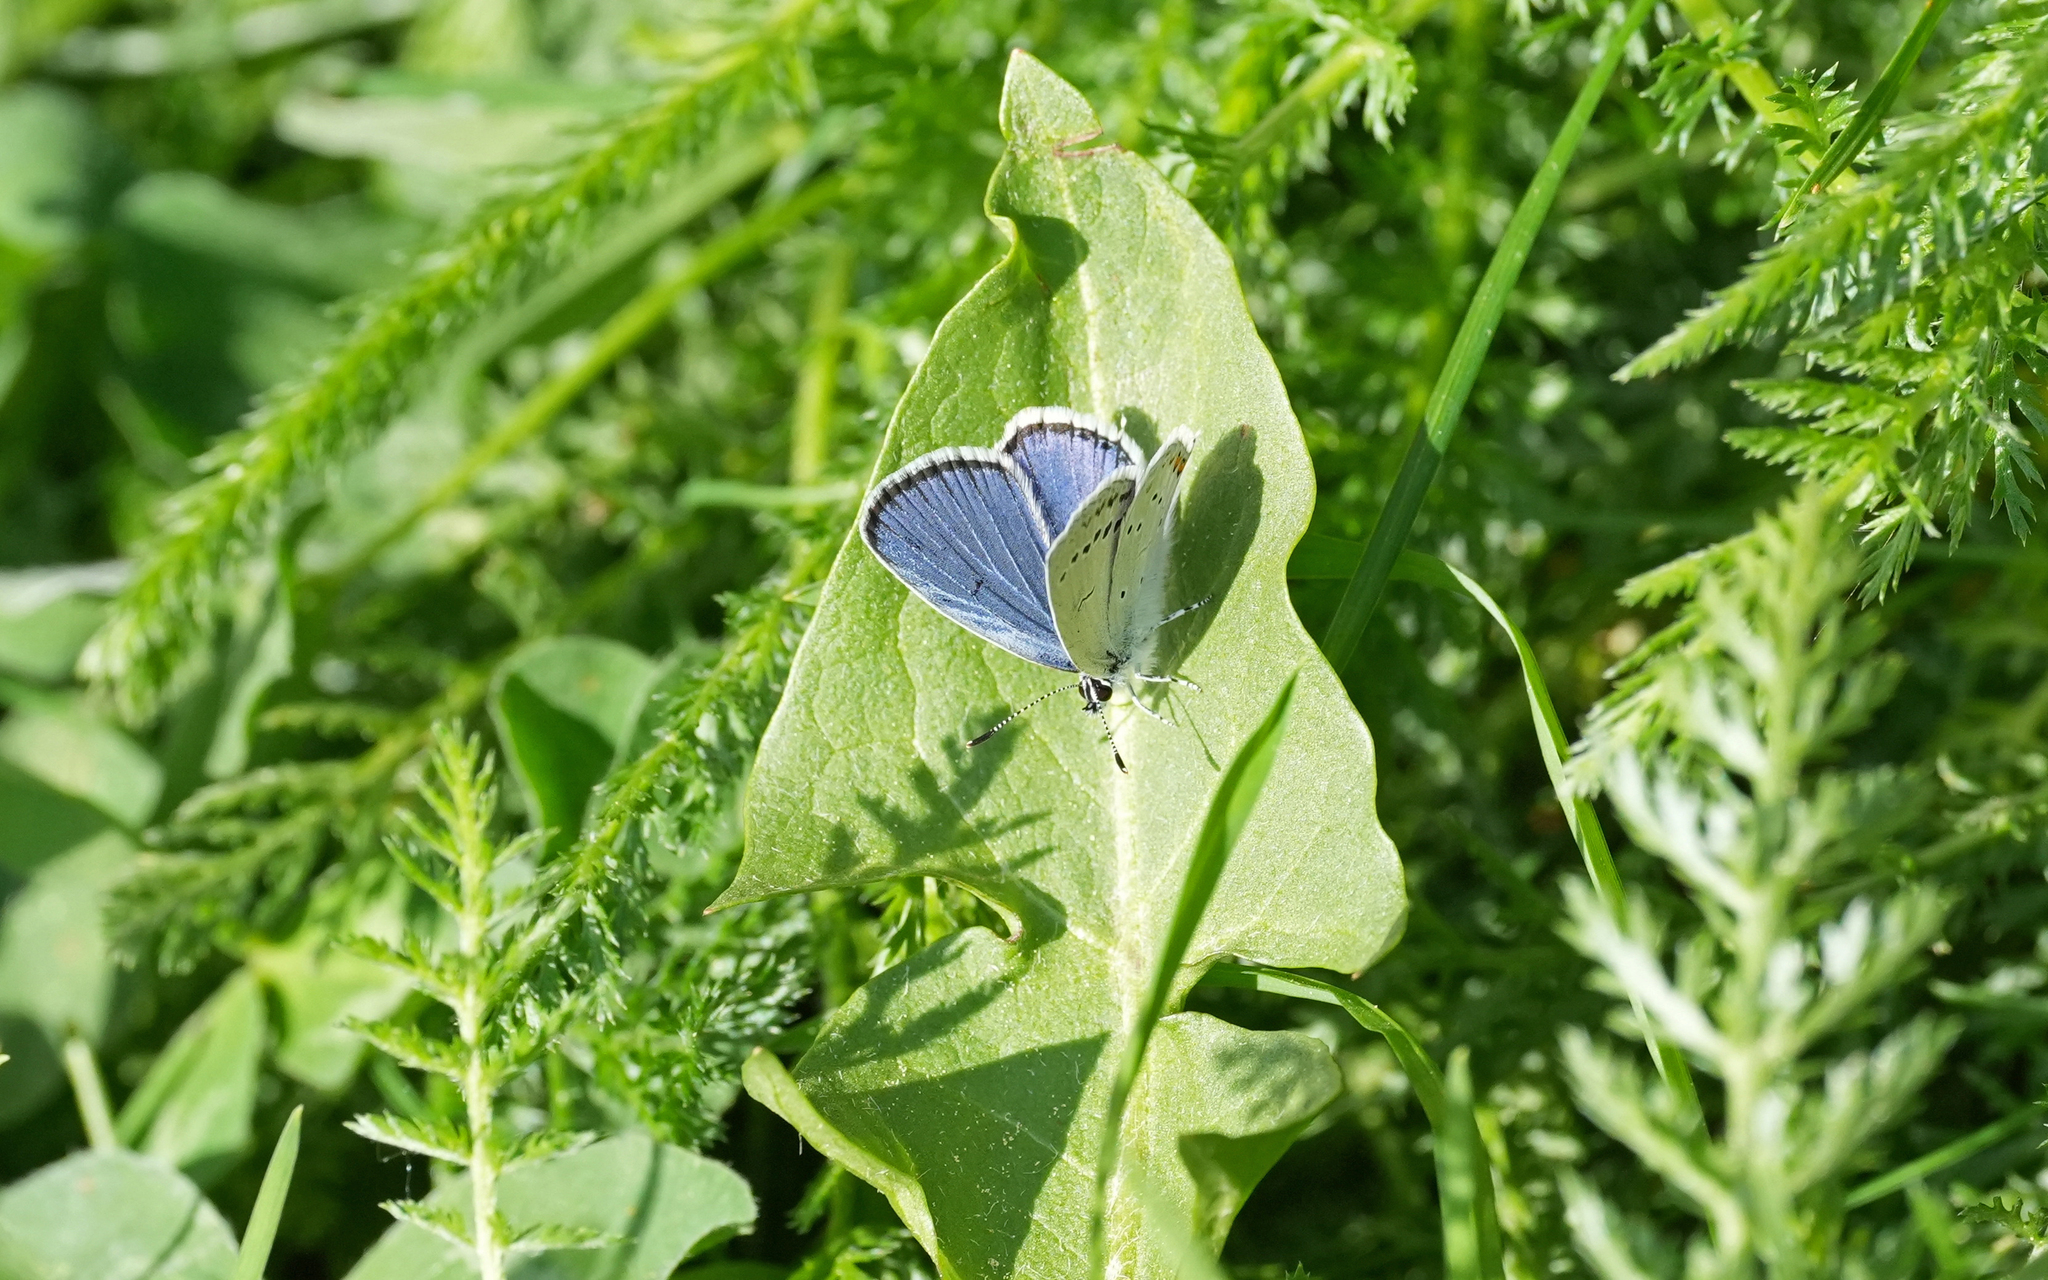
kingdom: Animalia
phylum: Arthropoda
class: Insecta
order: Lepidoptera
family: Lycaenidae
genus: Elkalyce
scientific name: Elkalyce argiades
